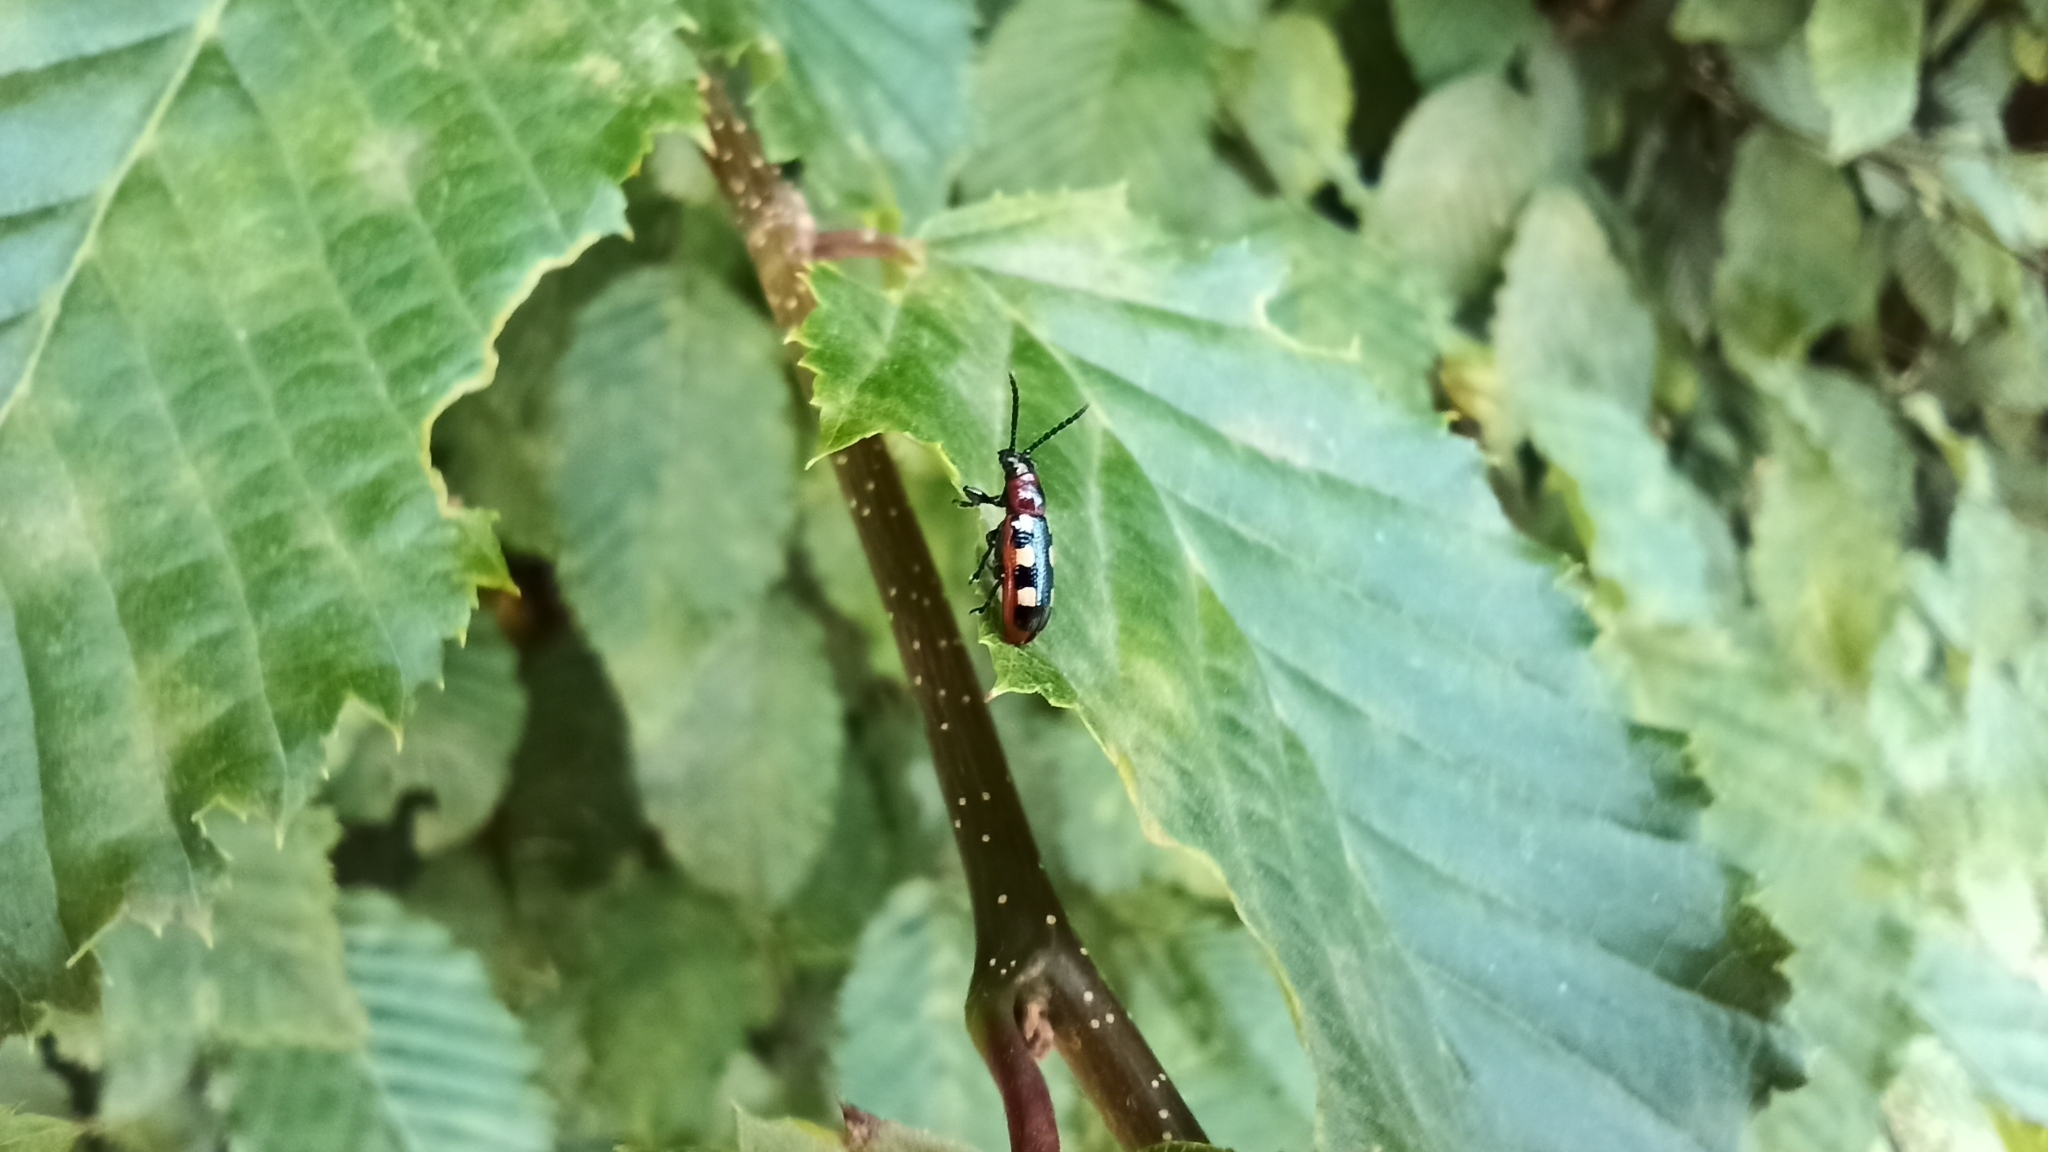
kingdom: Animalia
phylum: Arthropoda
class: Insecta
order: Coleoptera
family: Chrysomelidae
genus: Crioceris
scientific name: Crioceris asparagi
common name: Asparagus beetle
